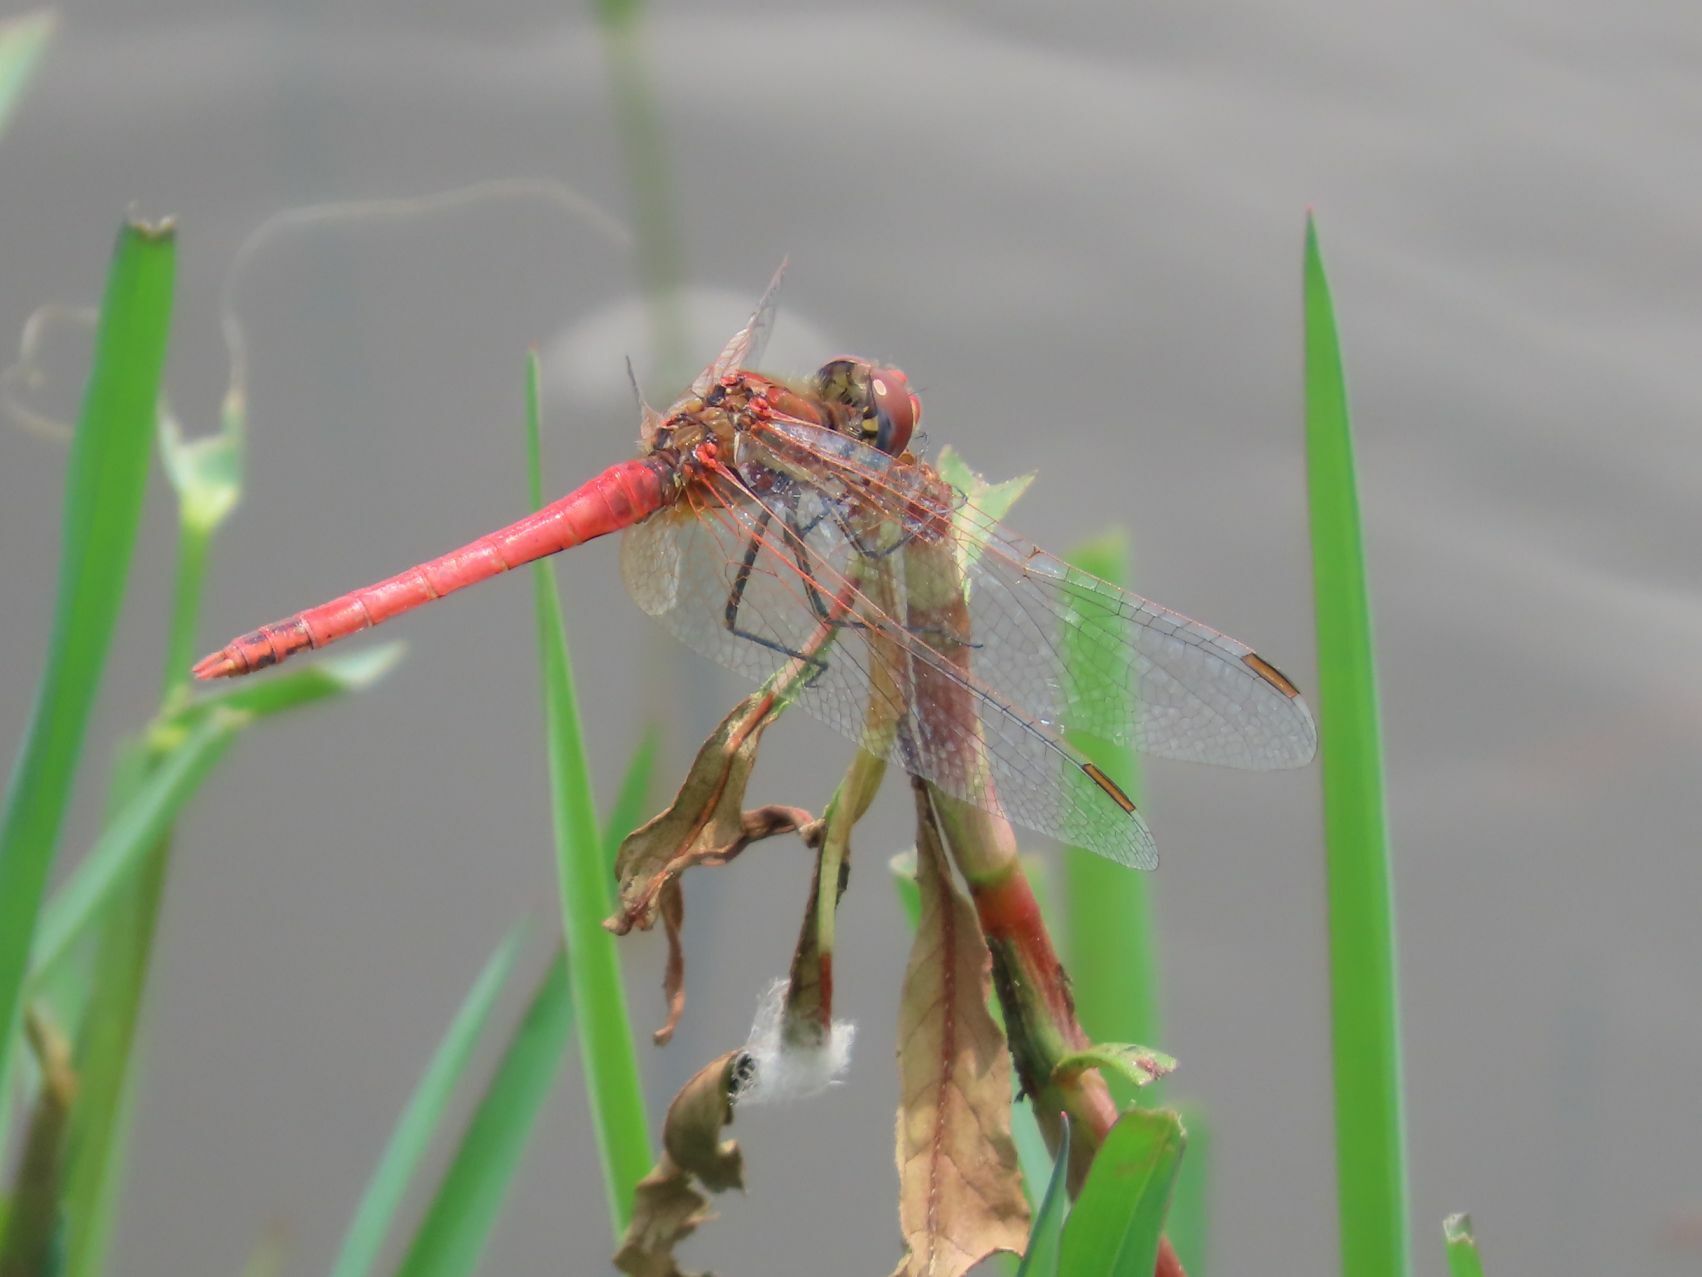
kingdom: Animalia
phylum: Arthropoda
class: Insecta
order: Odonata
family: Libellulidae
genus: Sympetrum
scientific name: Sympetrum fonscolombii
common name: Red-veined darter
